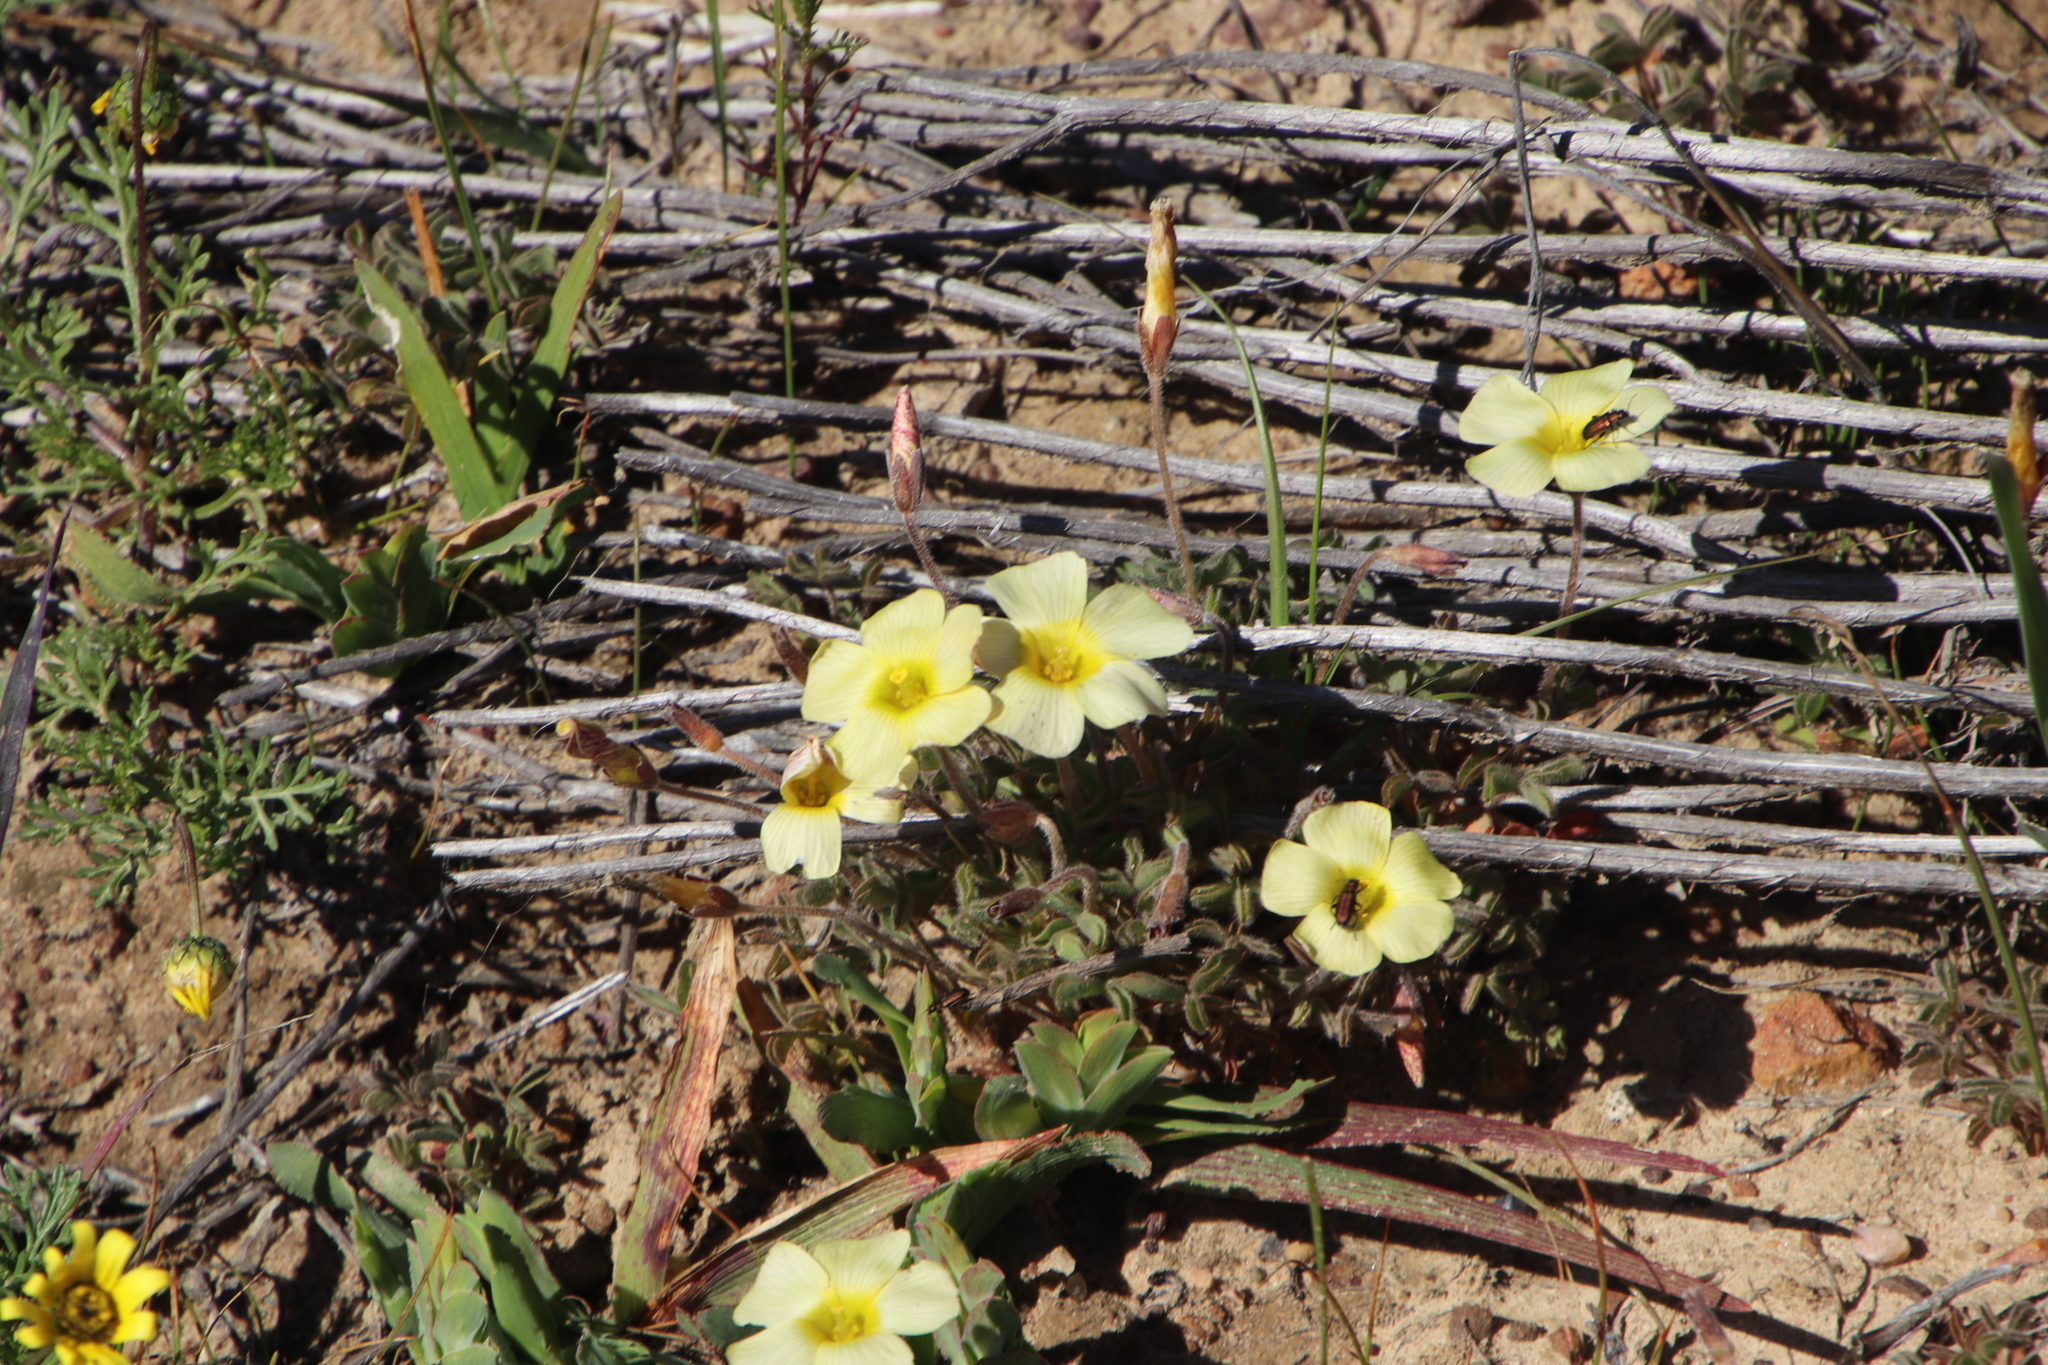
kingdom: Plantae
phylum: Tracheophyta
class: Magnoliopsida
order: Oxalidales
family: Oxalidaceae
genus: Oxalis
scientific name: Oxalis obtusa
